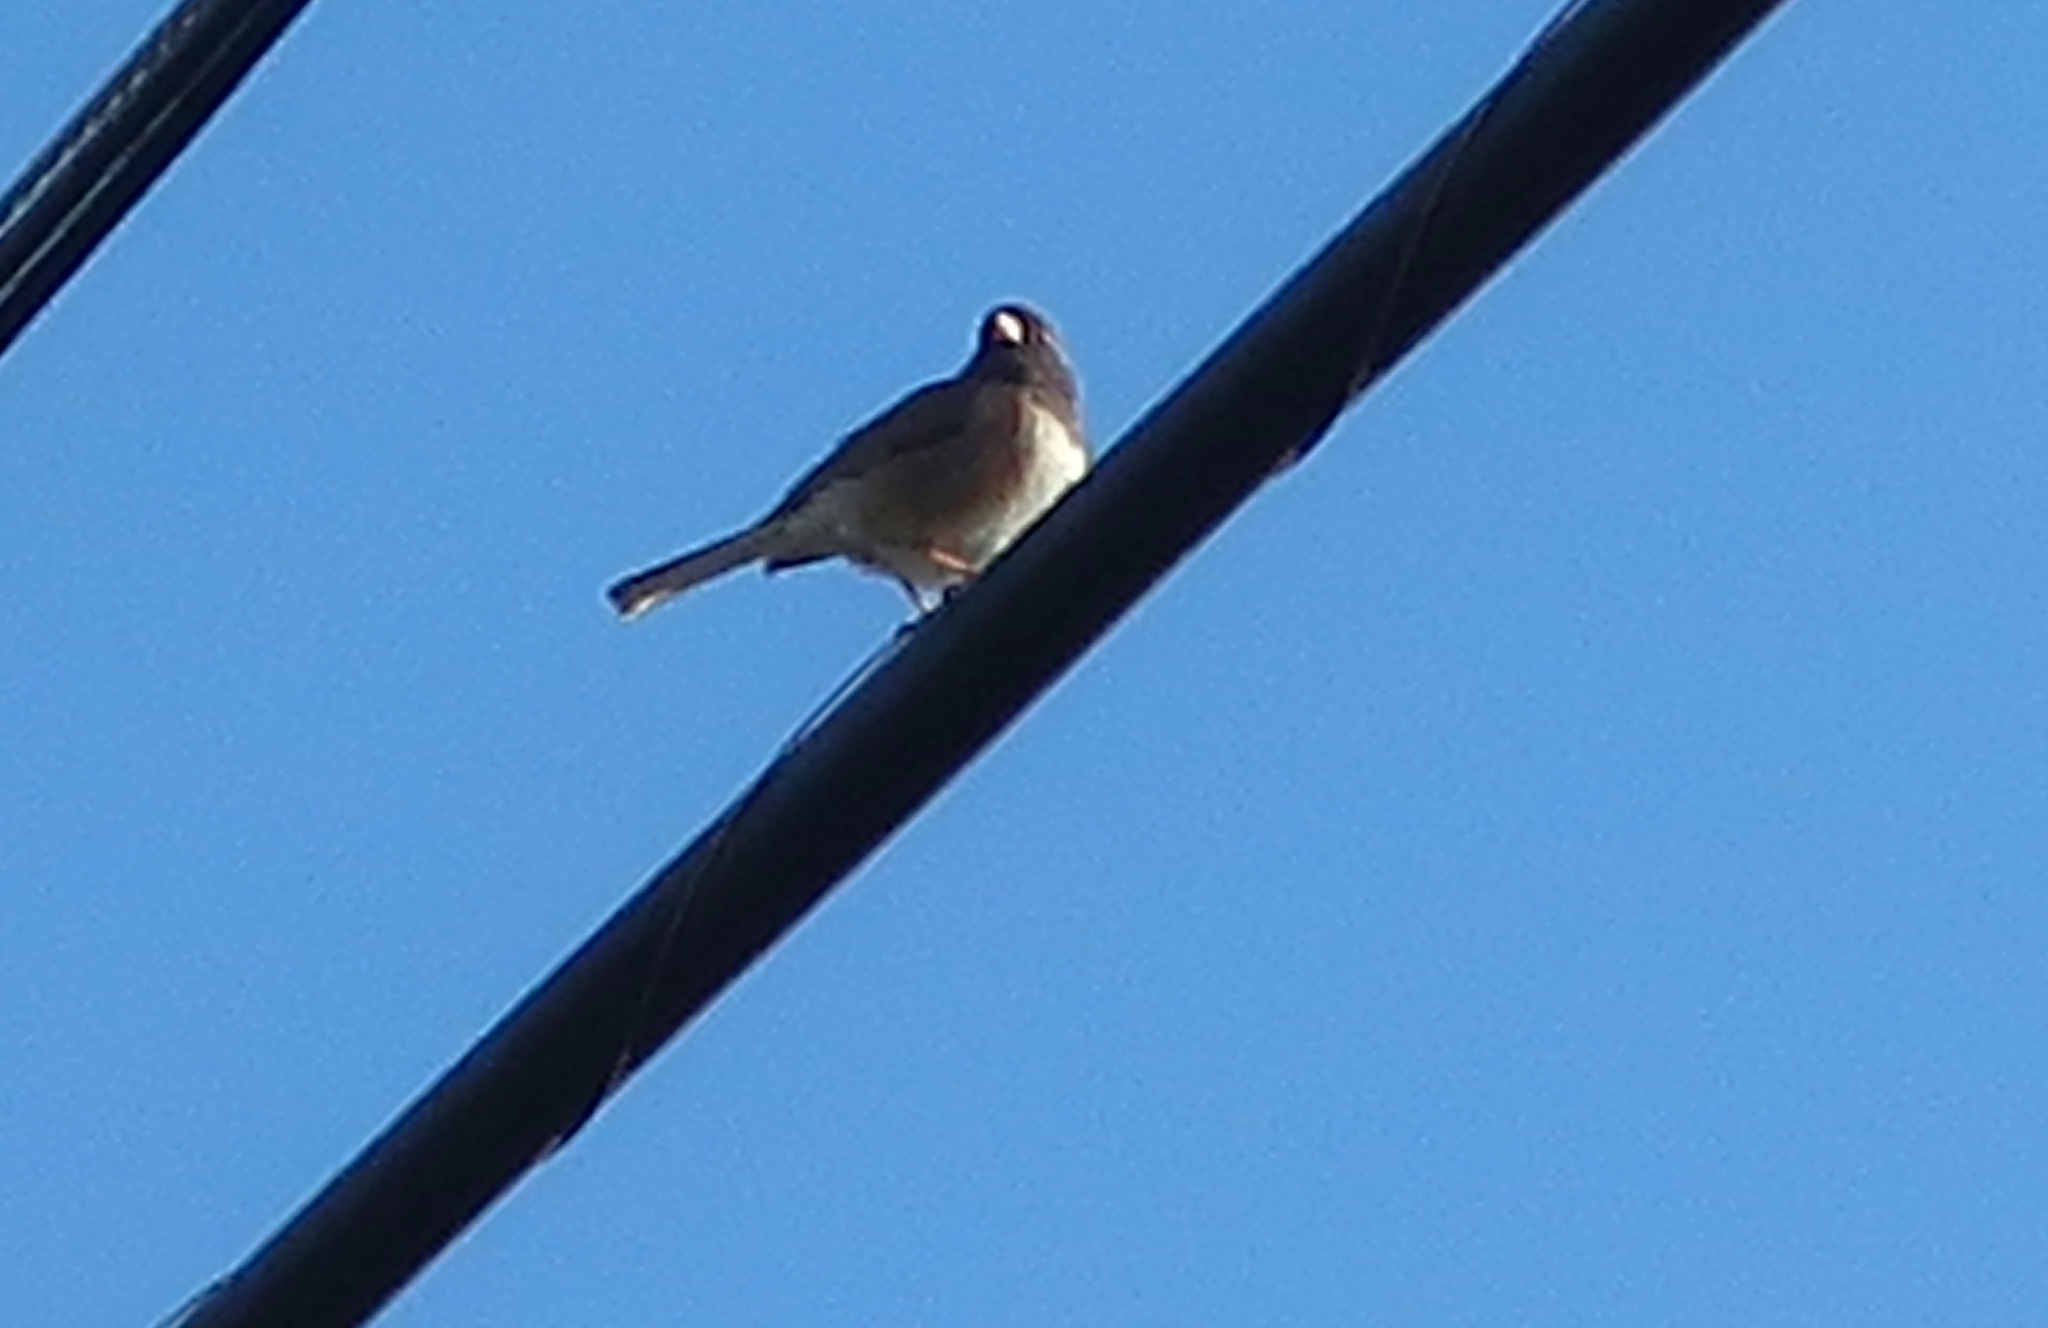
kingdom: Animalia
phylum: Chordata
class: Aves
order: Passeriformes
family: Passerellidae
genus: Junco
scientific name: Junco hyemalis
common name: Dark-eyed junco
